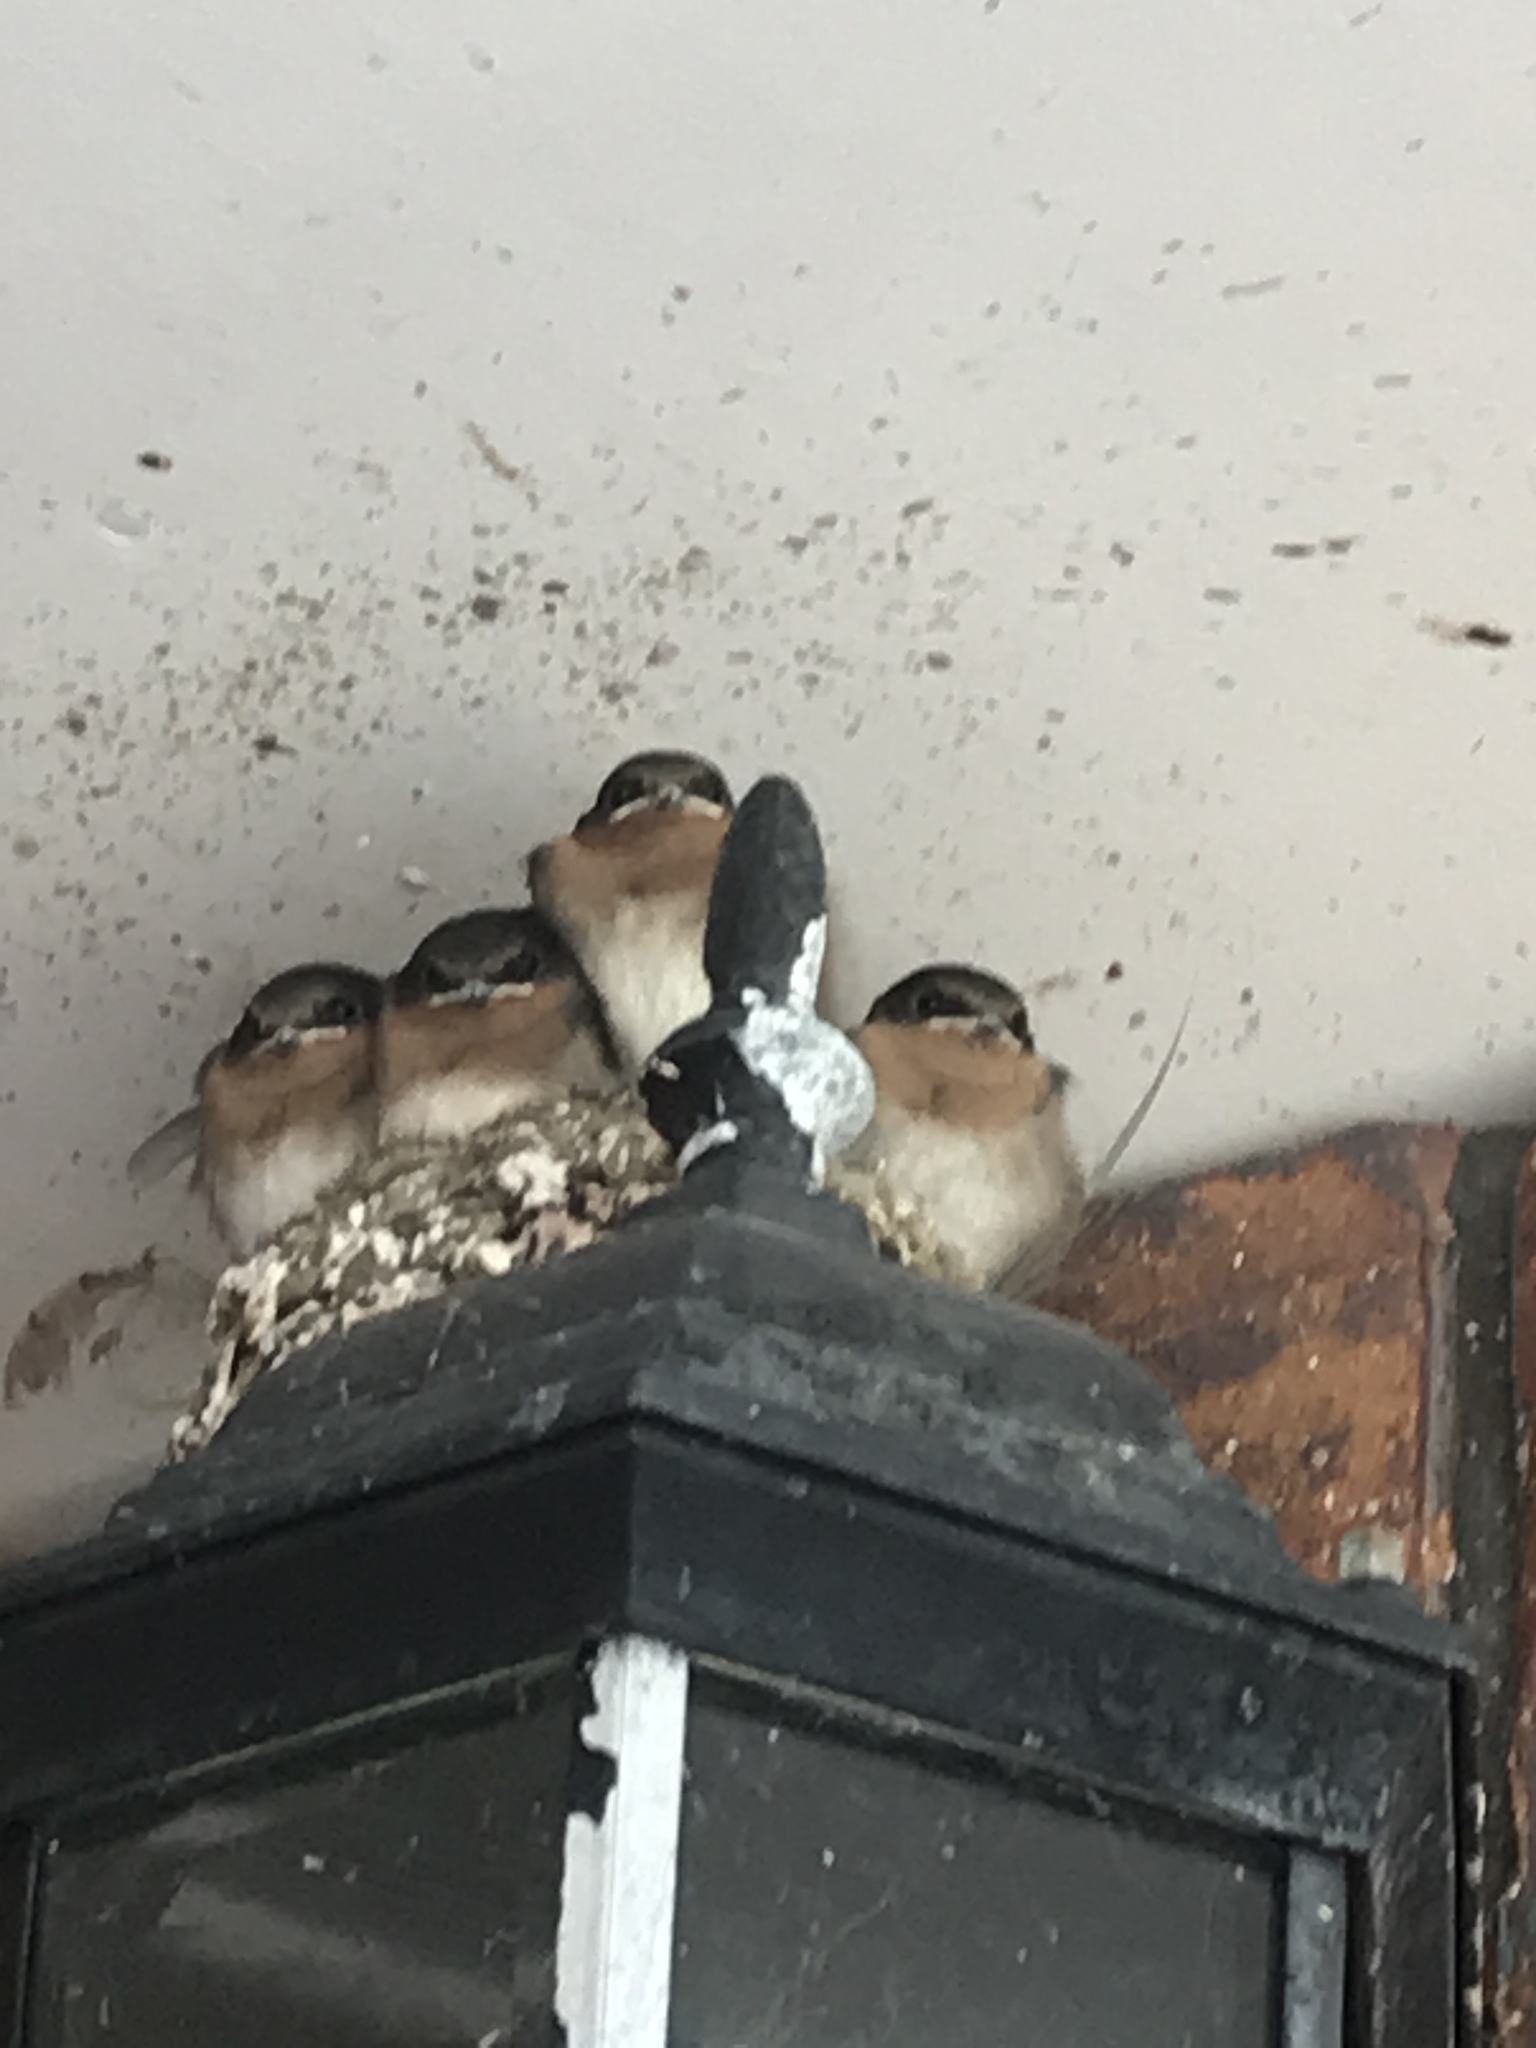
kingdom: Animalia
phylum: Chordata
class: Aves
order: Passeriformes
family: Hirundinidae
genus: Hirundo
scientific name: Hirundo neoxena
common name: Welcome swallow
